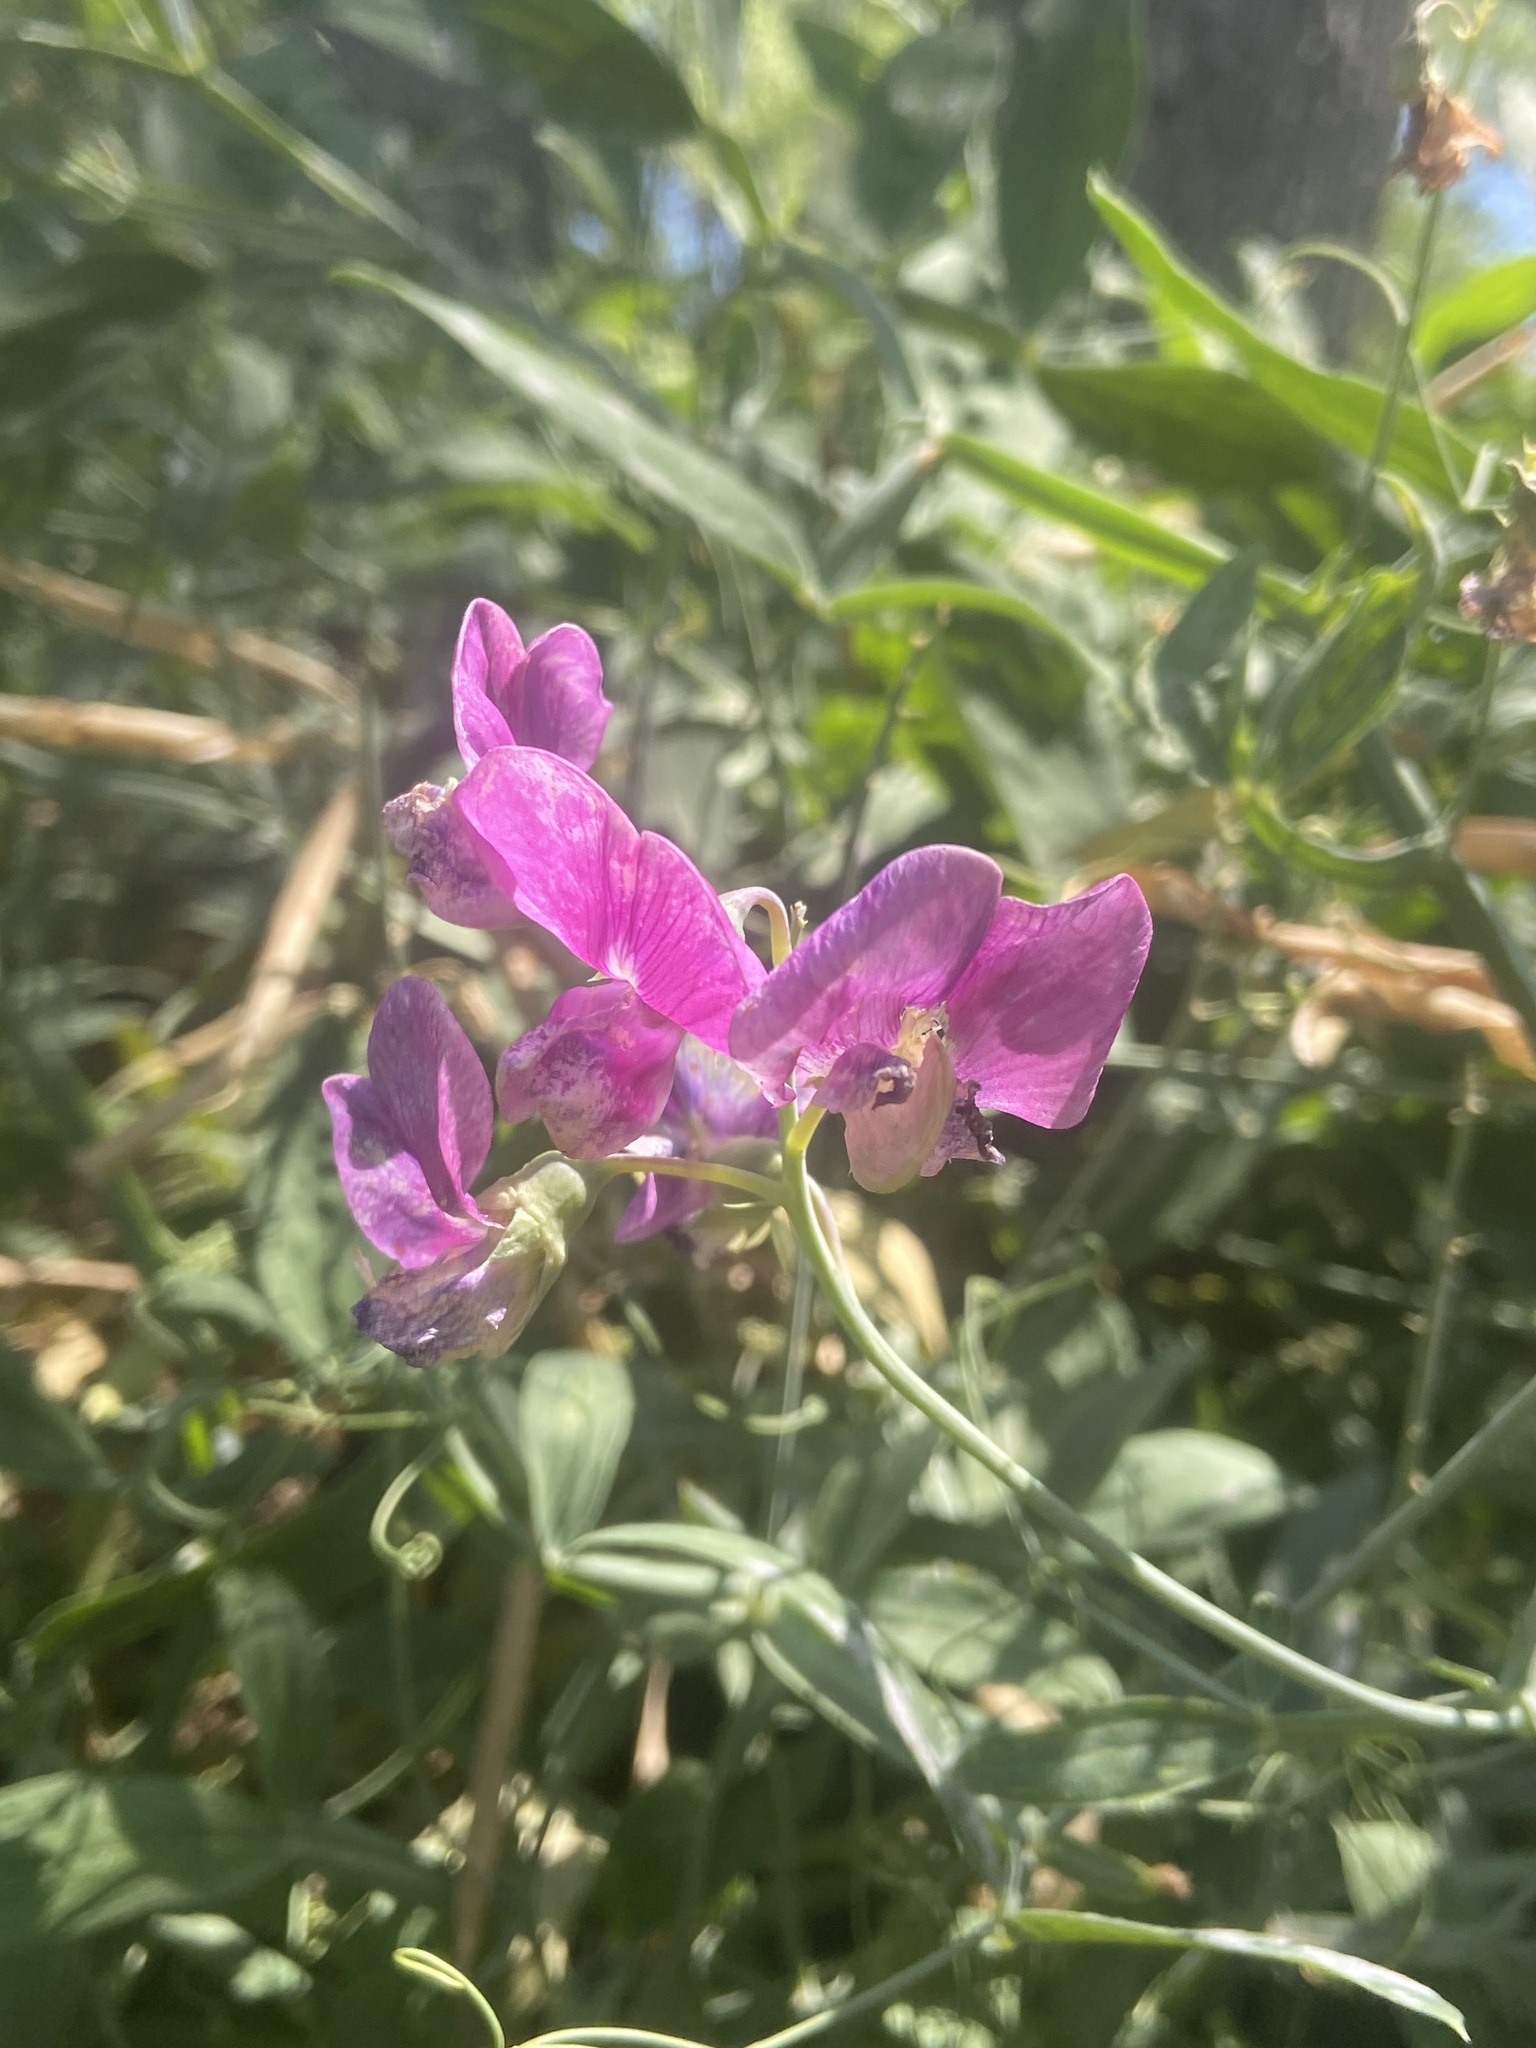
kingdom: Plantae
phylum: Tracheophyta
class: Magnoliopsida
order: Fabales
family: Fabaceae
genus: Lathyrus
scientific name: Lathyrus latifolius
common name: Perennial pea
